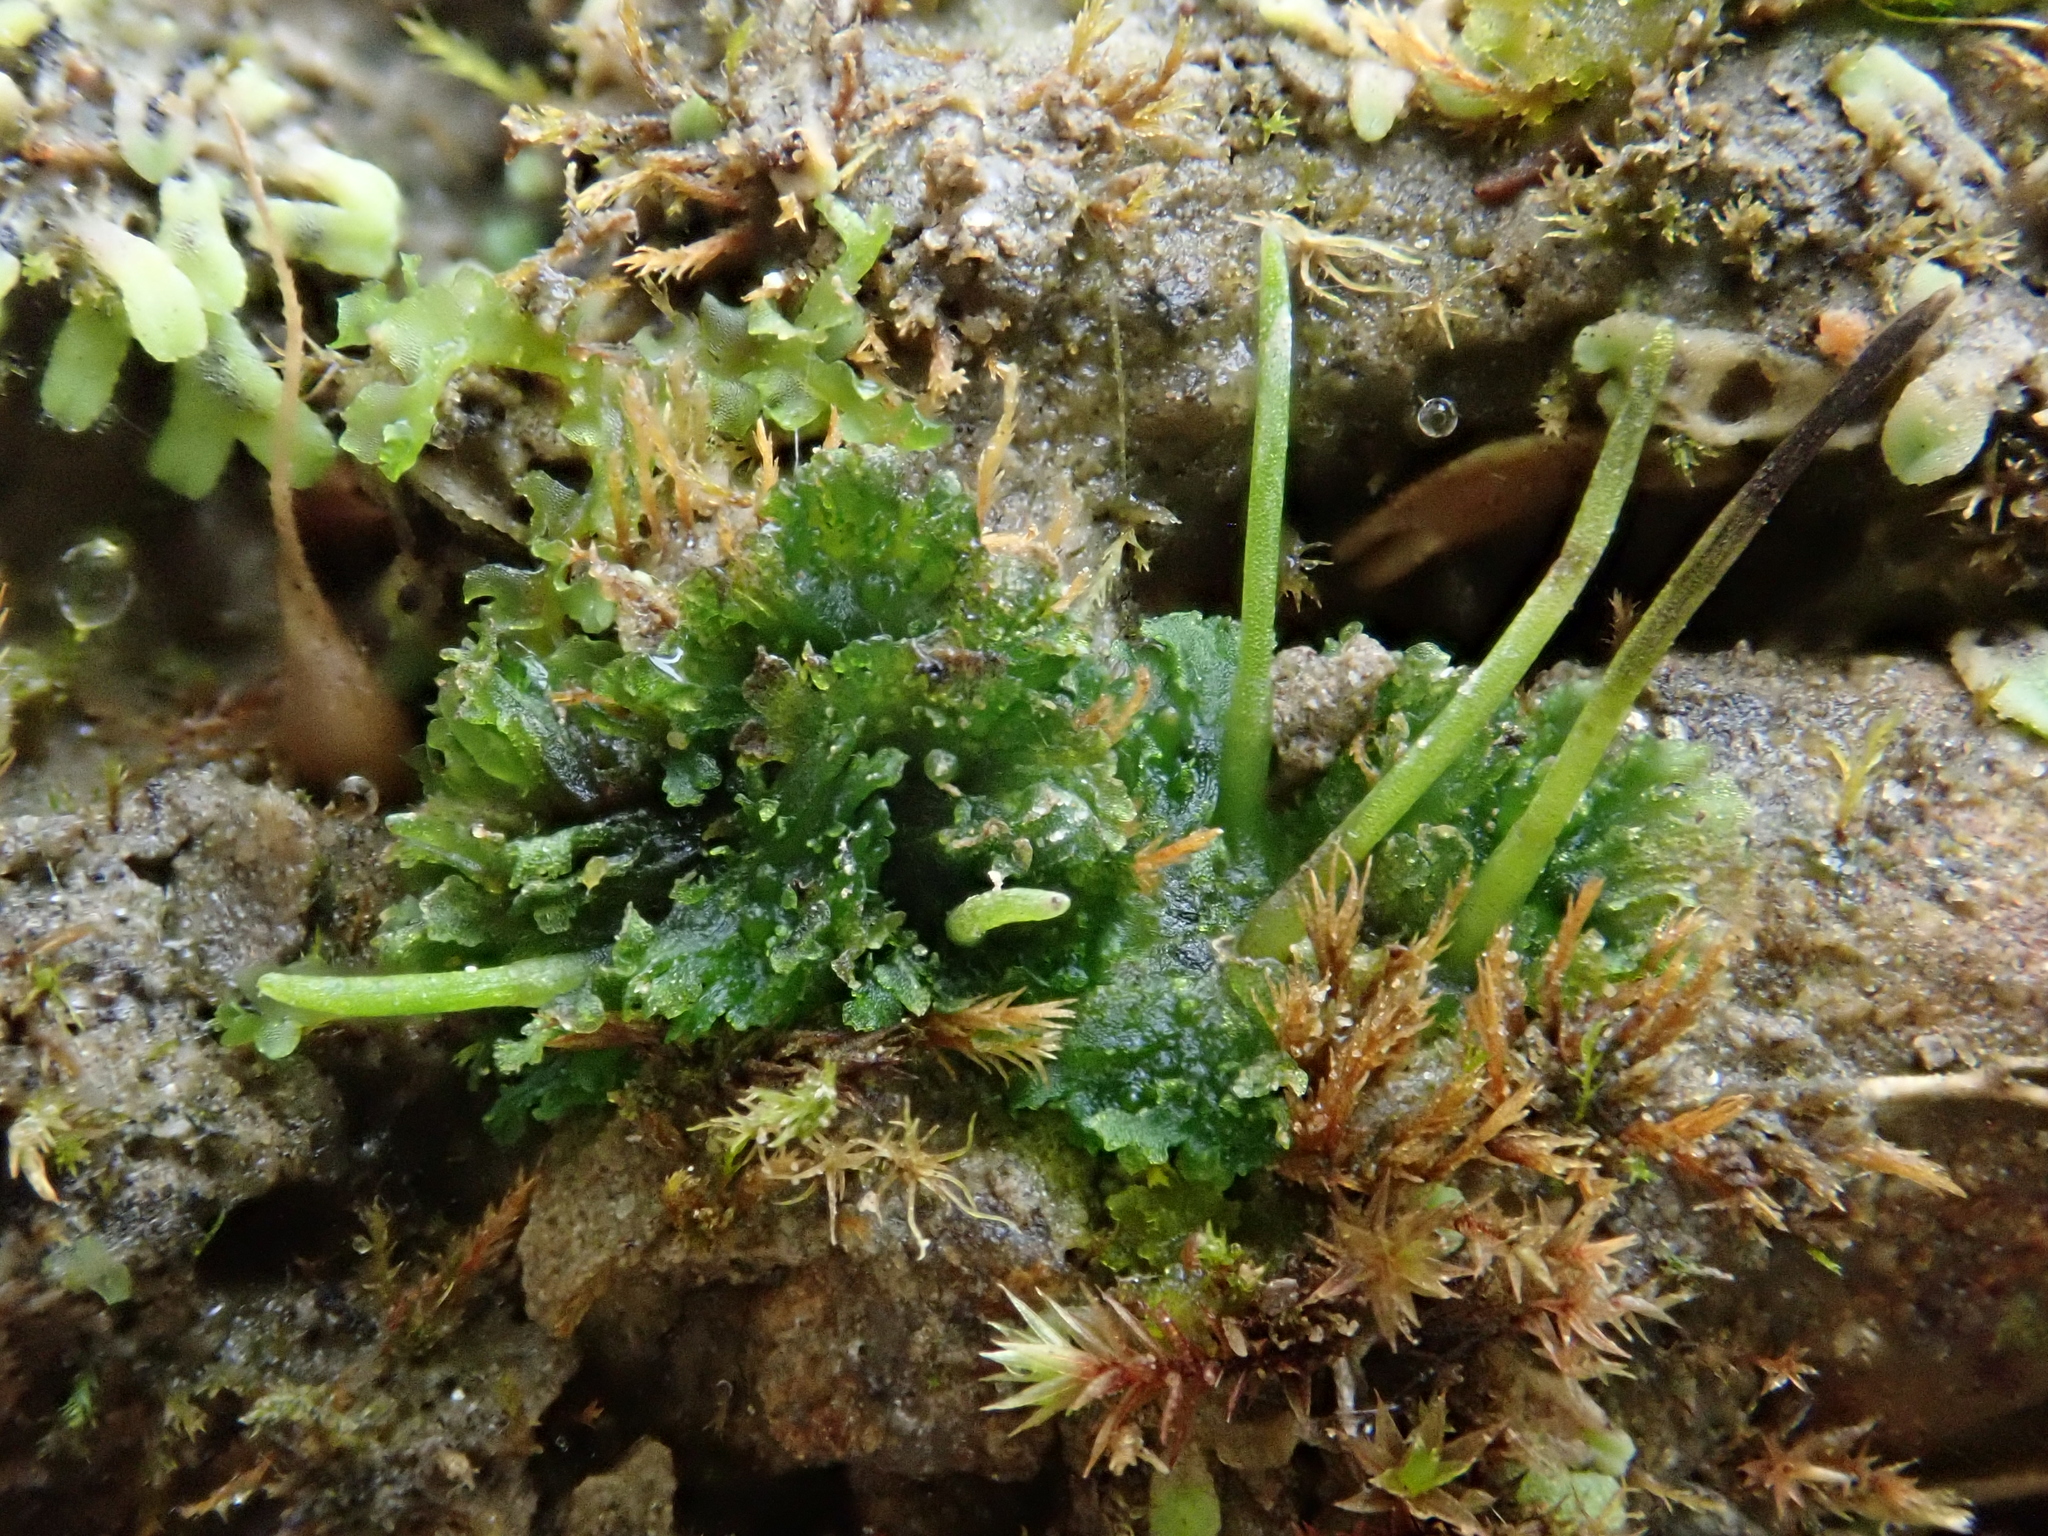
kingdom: Plantae
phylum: Anthocerotophyta
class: Anthocerotopsida
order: Anthocerotales
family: Anthocerotaceae
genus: Anthoceros
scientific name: Anthoceros agrestis
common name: Field hornwort
